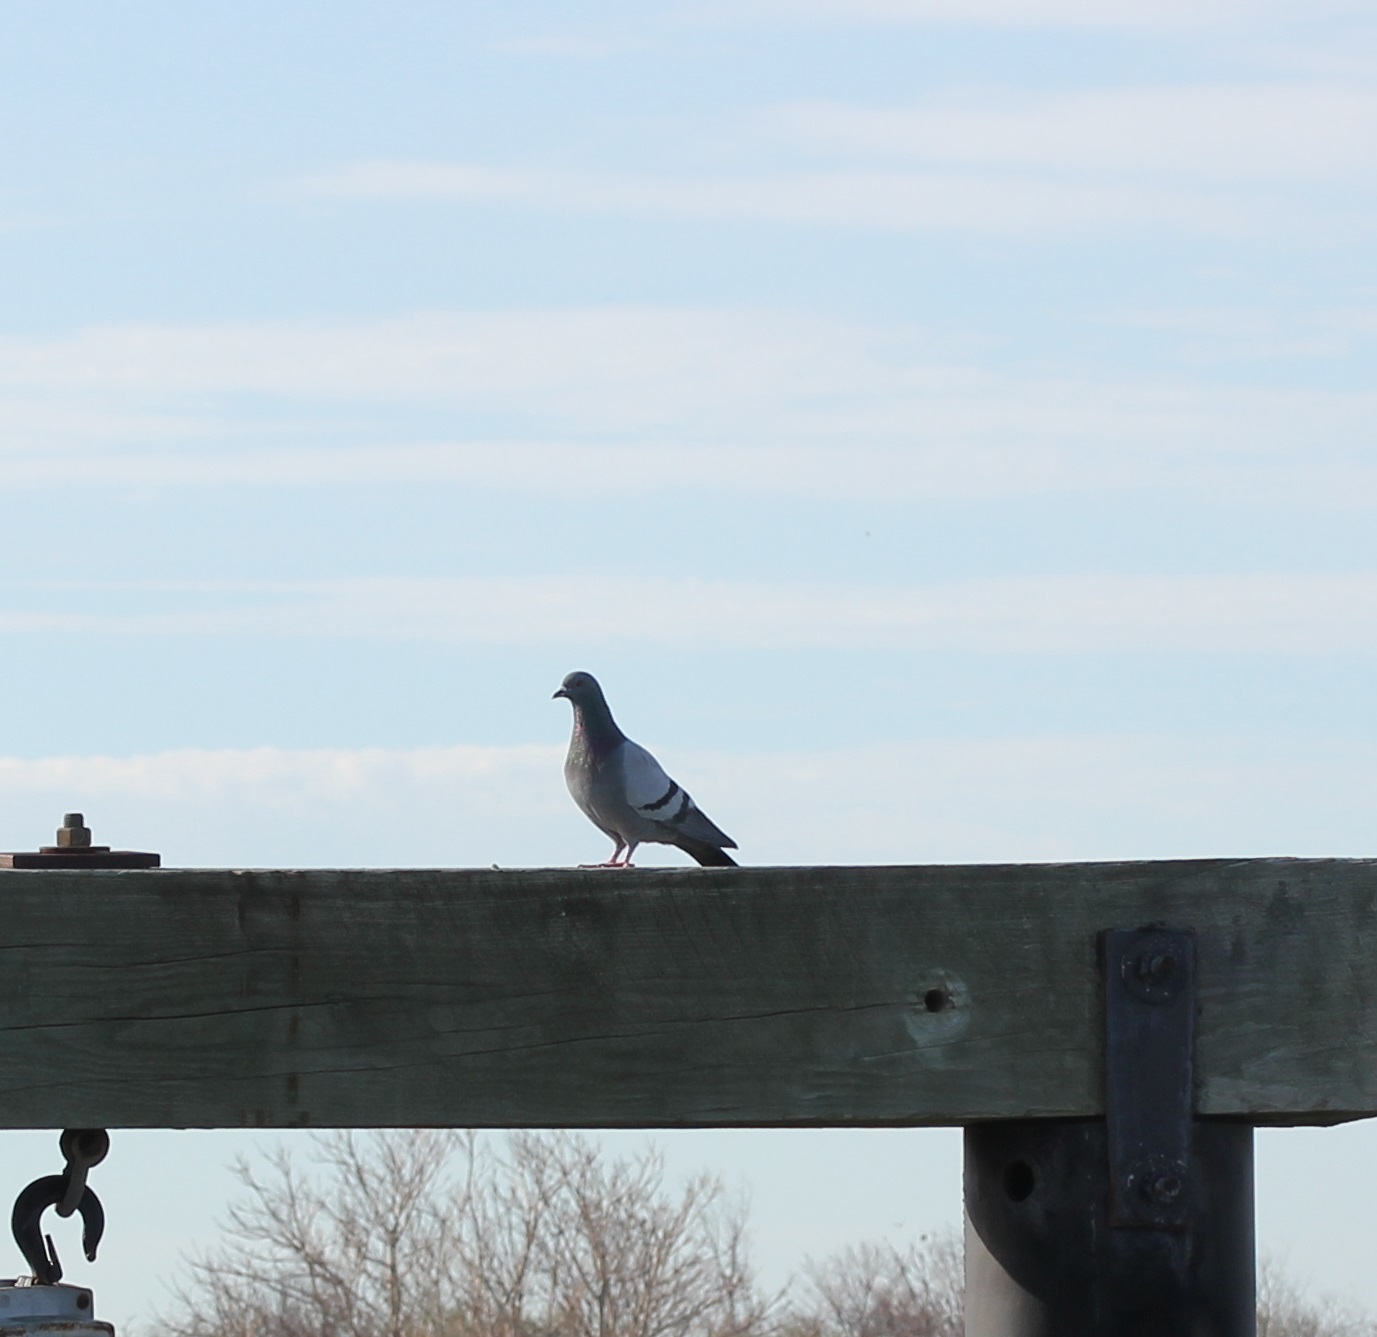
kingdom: Animalia
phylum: Chordata
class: Aves
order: Columbiformes
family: Columbidae
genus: Columba
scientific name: Columba livia
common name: Rock pigeon
